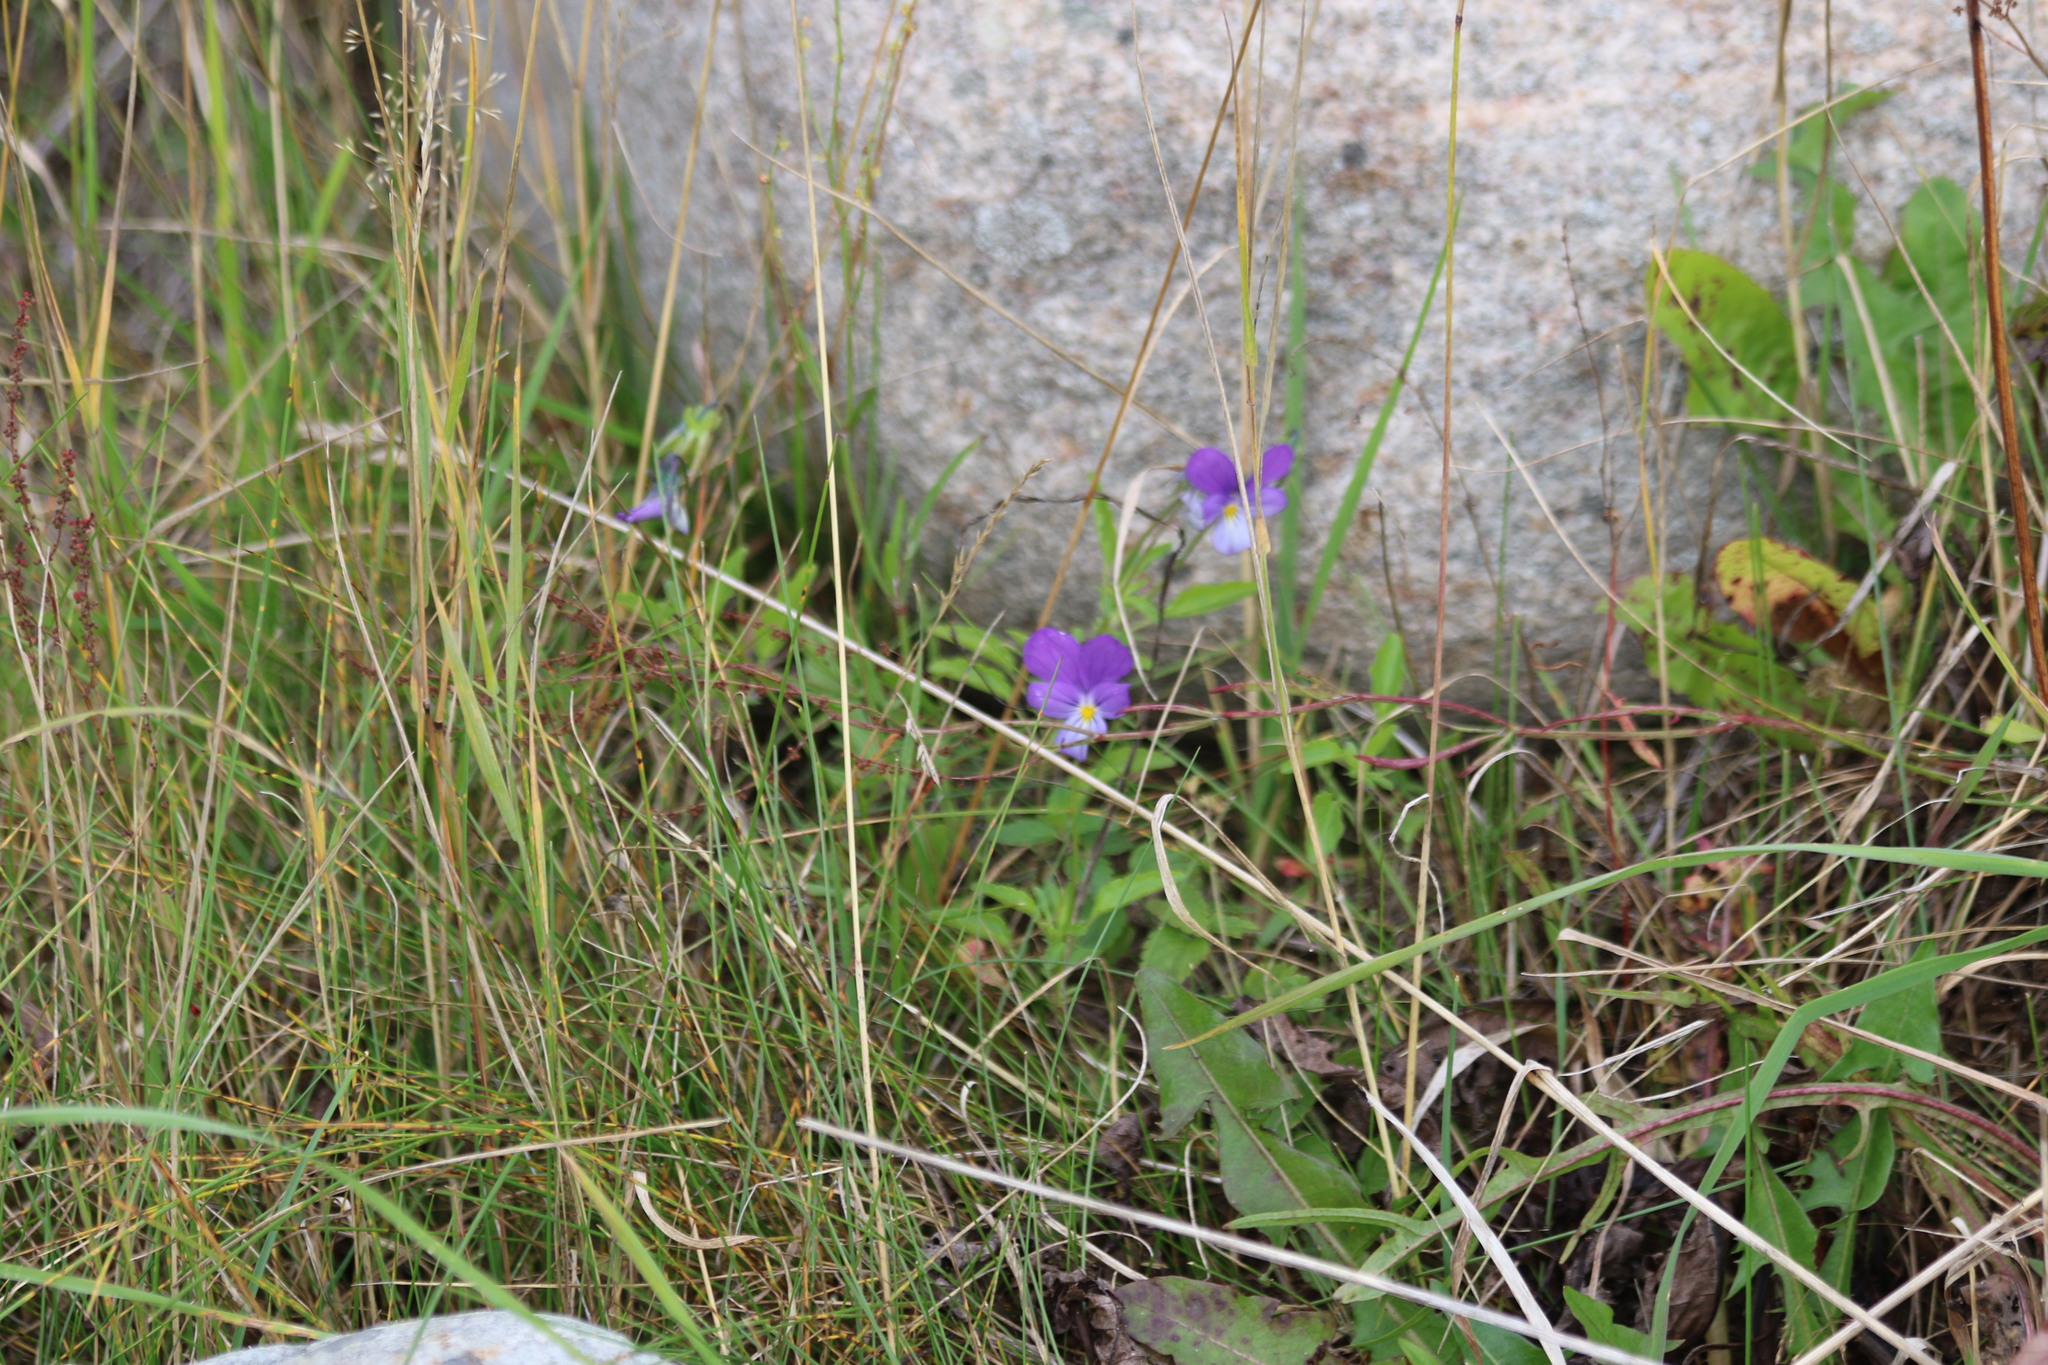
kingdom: Plantae
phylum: Tracheophyta
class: Magnoliopsida
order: Malpighiales
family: Violaceae
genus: Viola
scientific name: Viola tricolor
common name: Pansy
